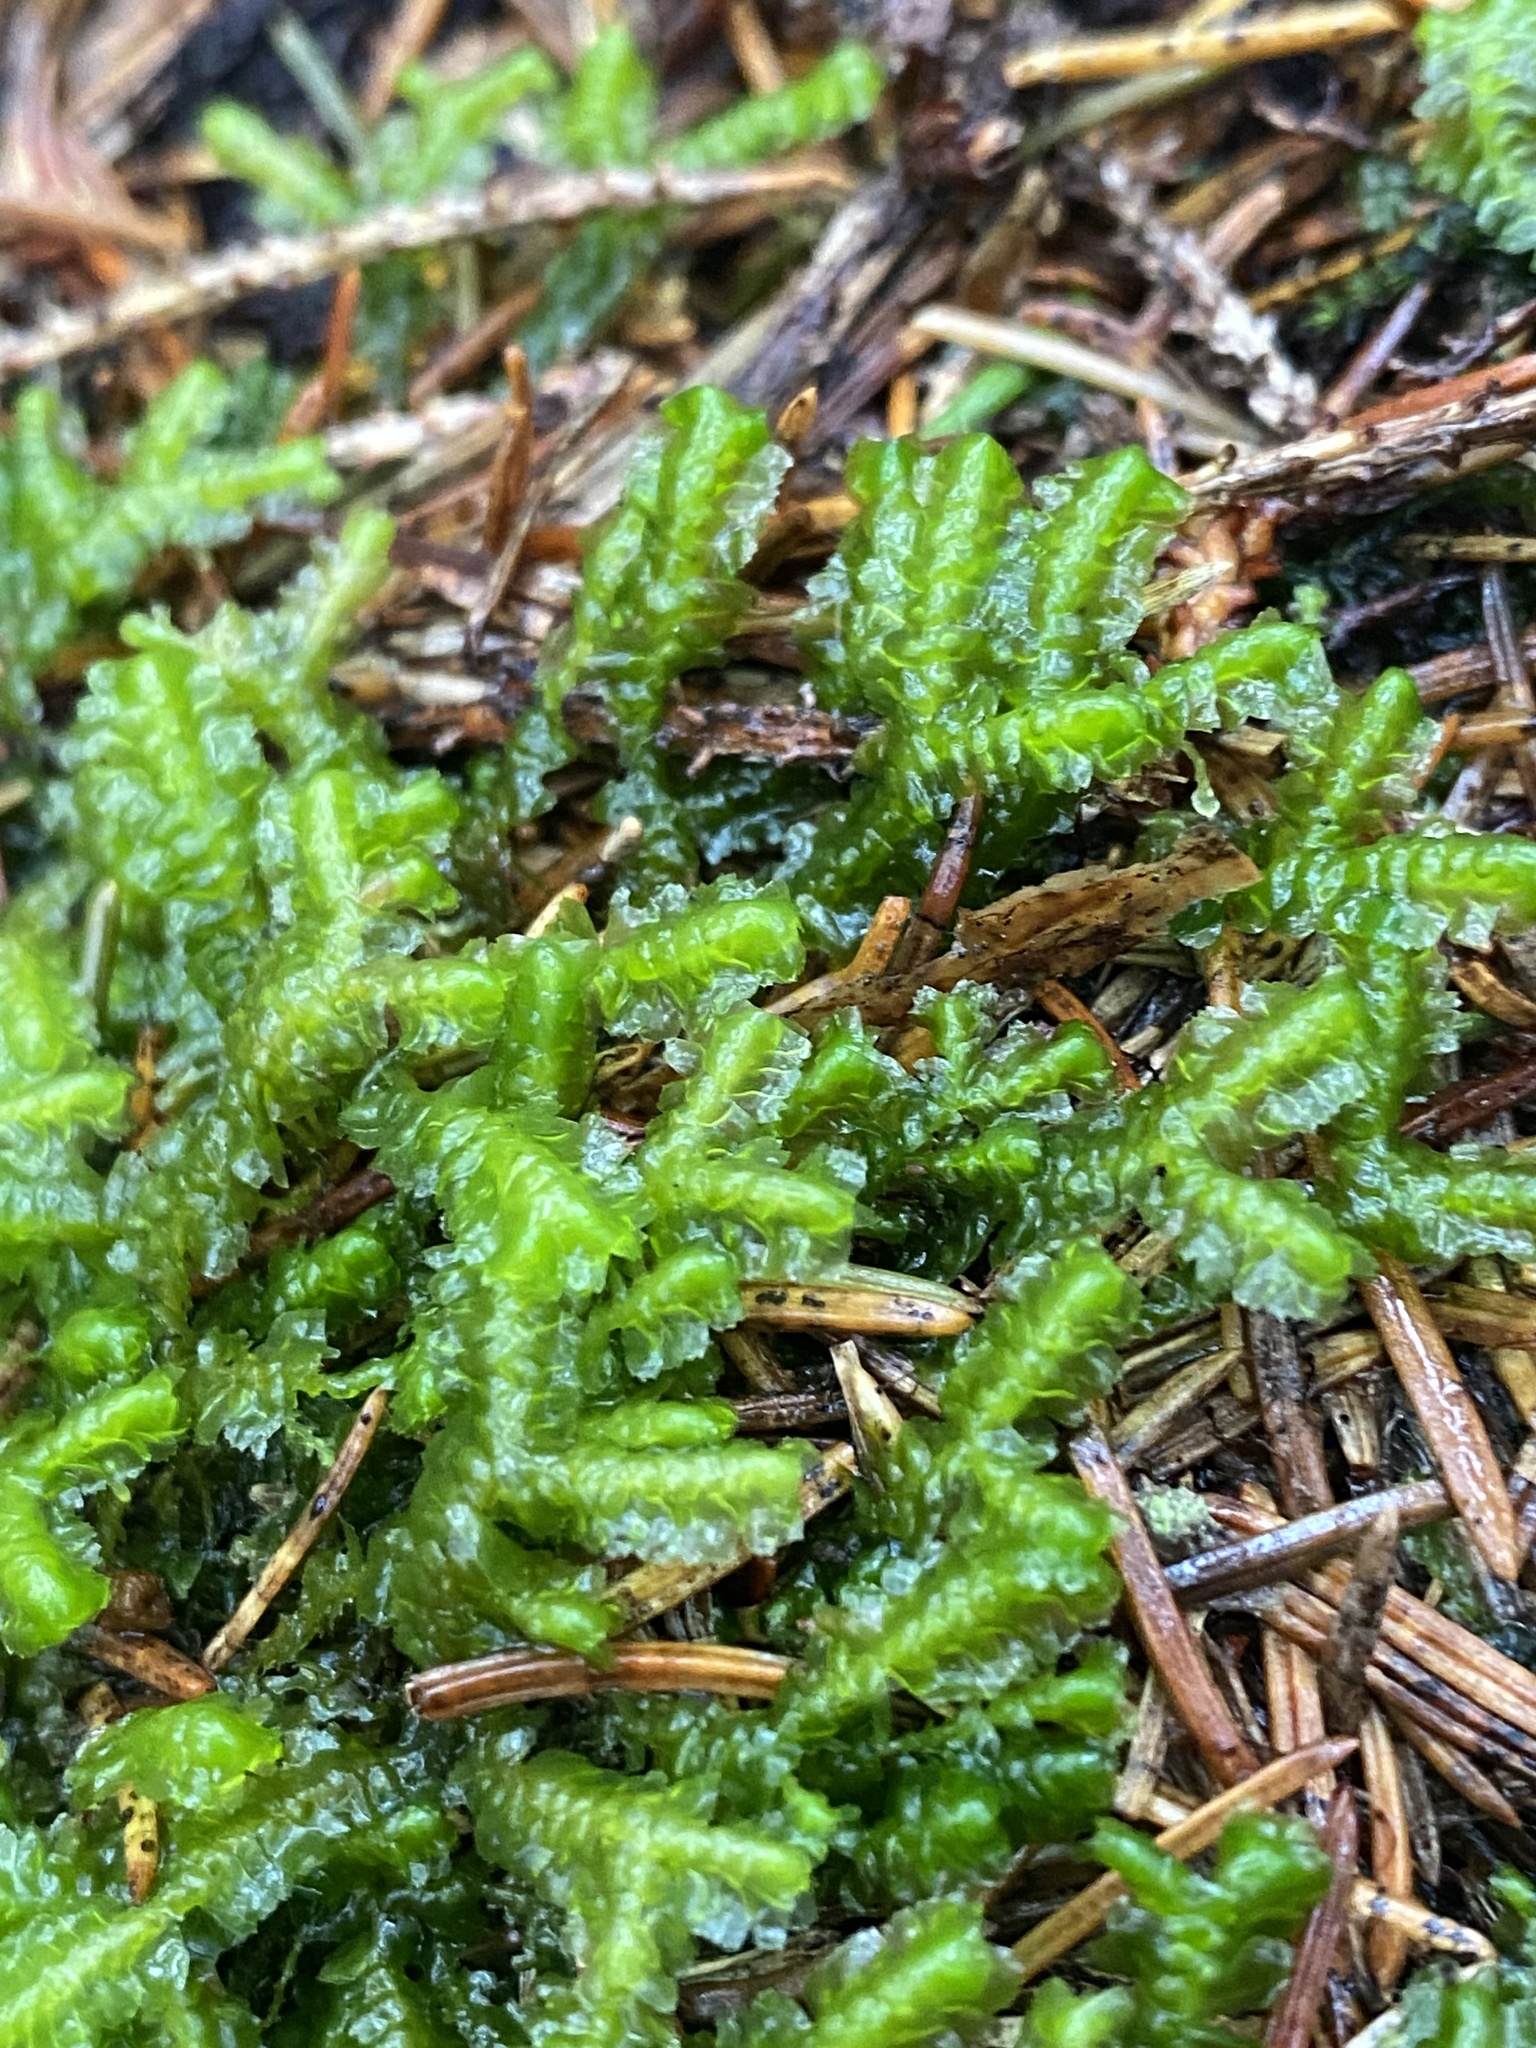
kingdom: Plantae
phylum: Marchantiophyta
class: Jungermanniopsida
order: Jungermanniales
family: Lepidoziaceae
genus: Bazzania
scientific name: Bazzania trilobata
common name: Three-lobed whipwort
